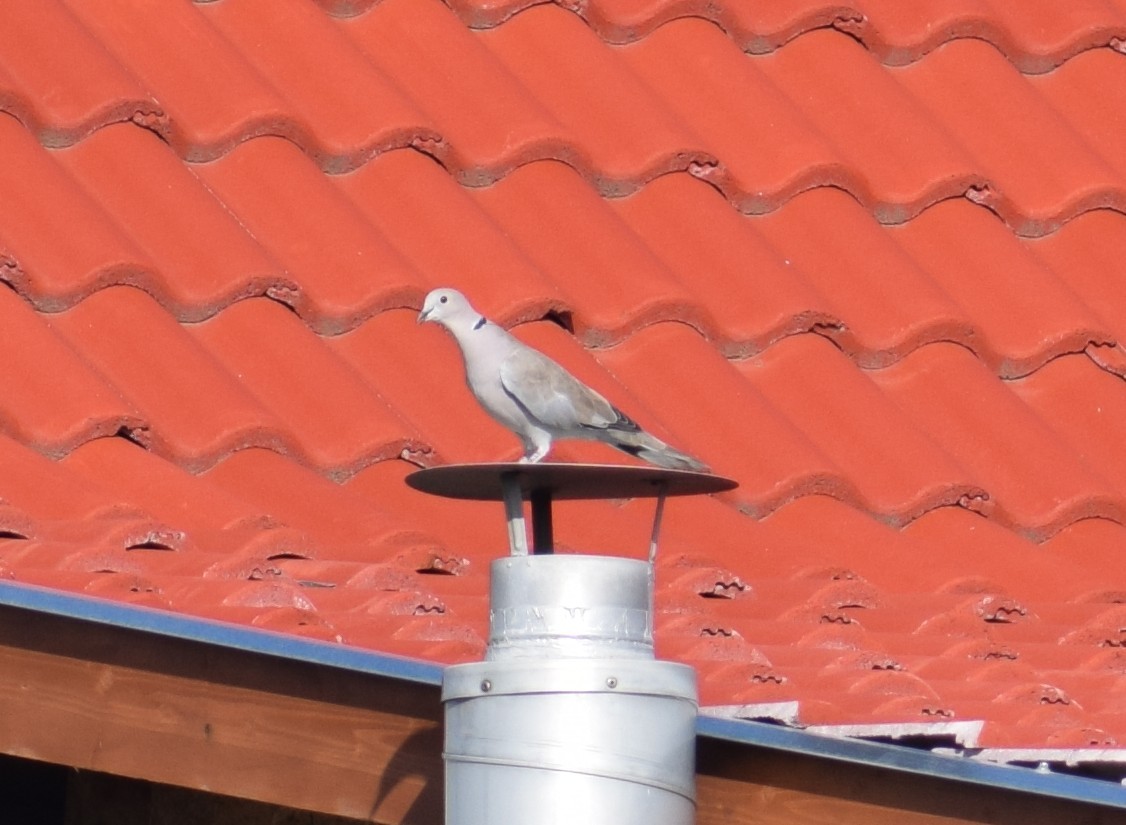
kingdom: Animalia
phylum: Chordata
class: Aves
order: Columbiformes
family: Columbidae
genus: Streptopelia
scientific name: Streptopelia decaocto
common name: Eurasian collared dove
